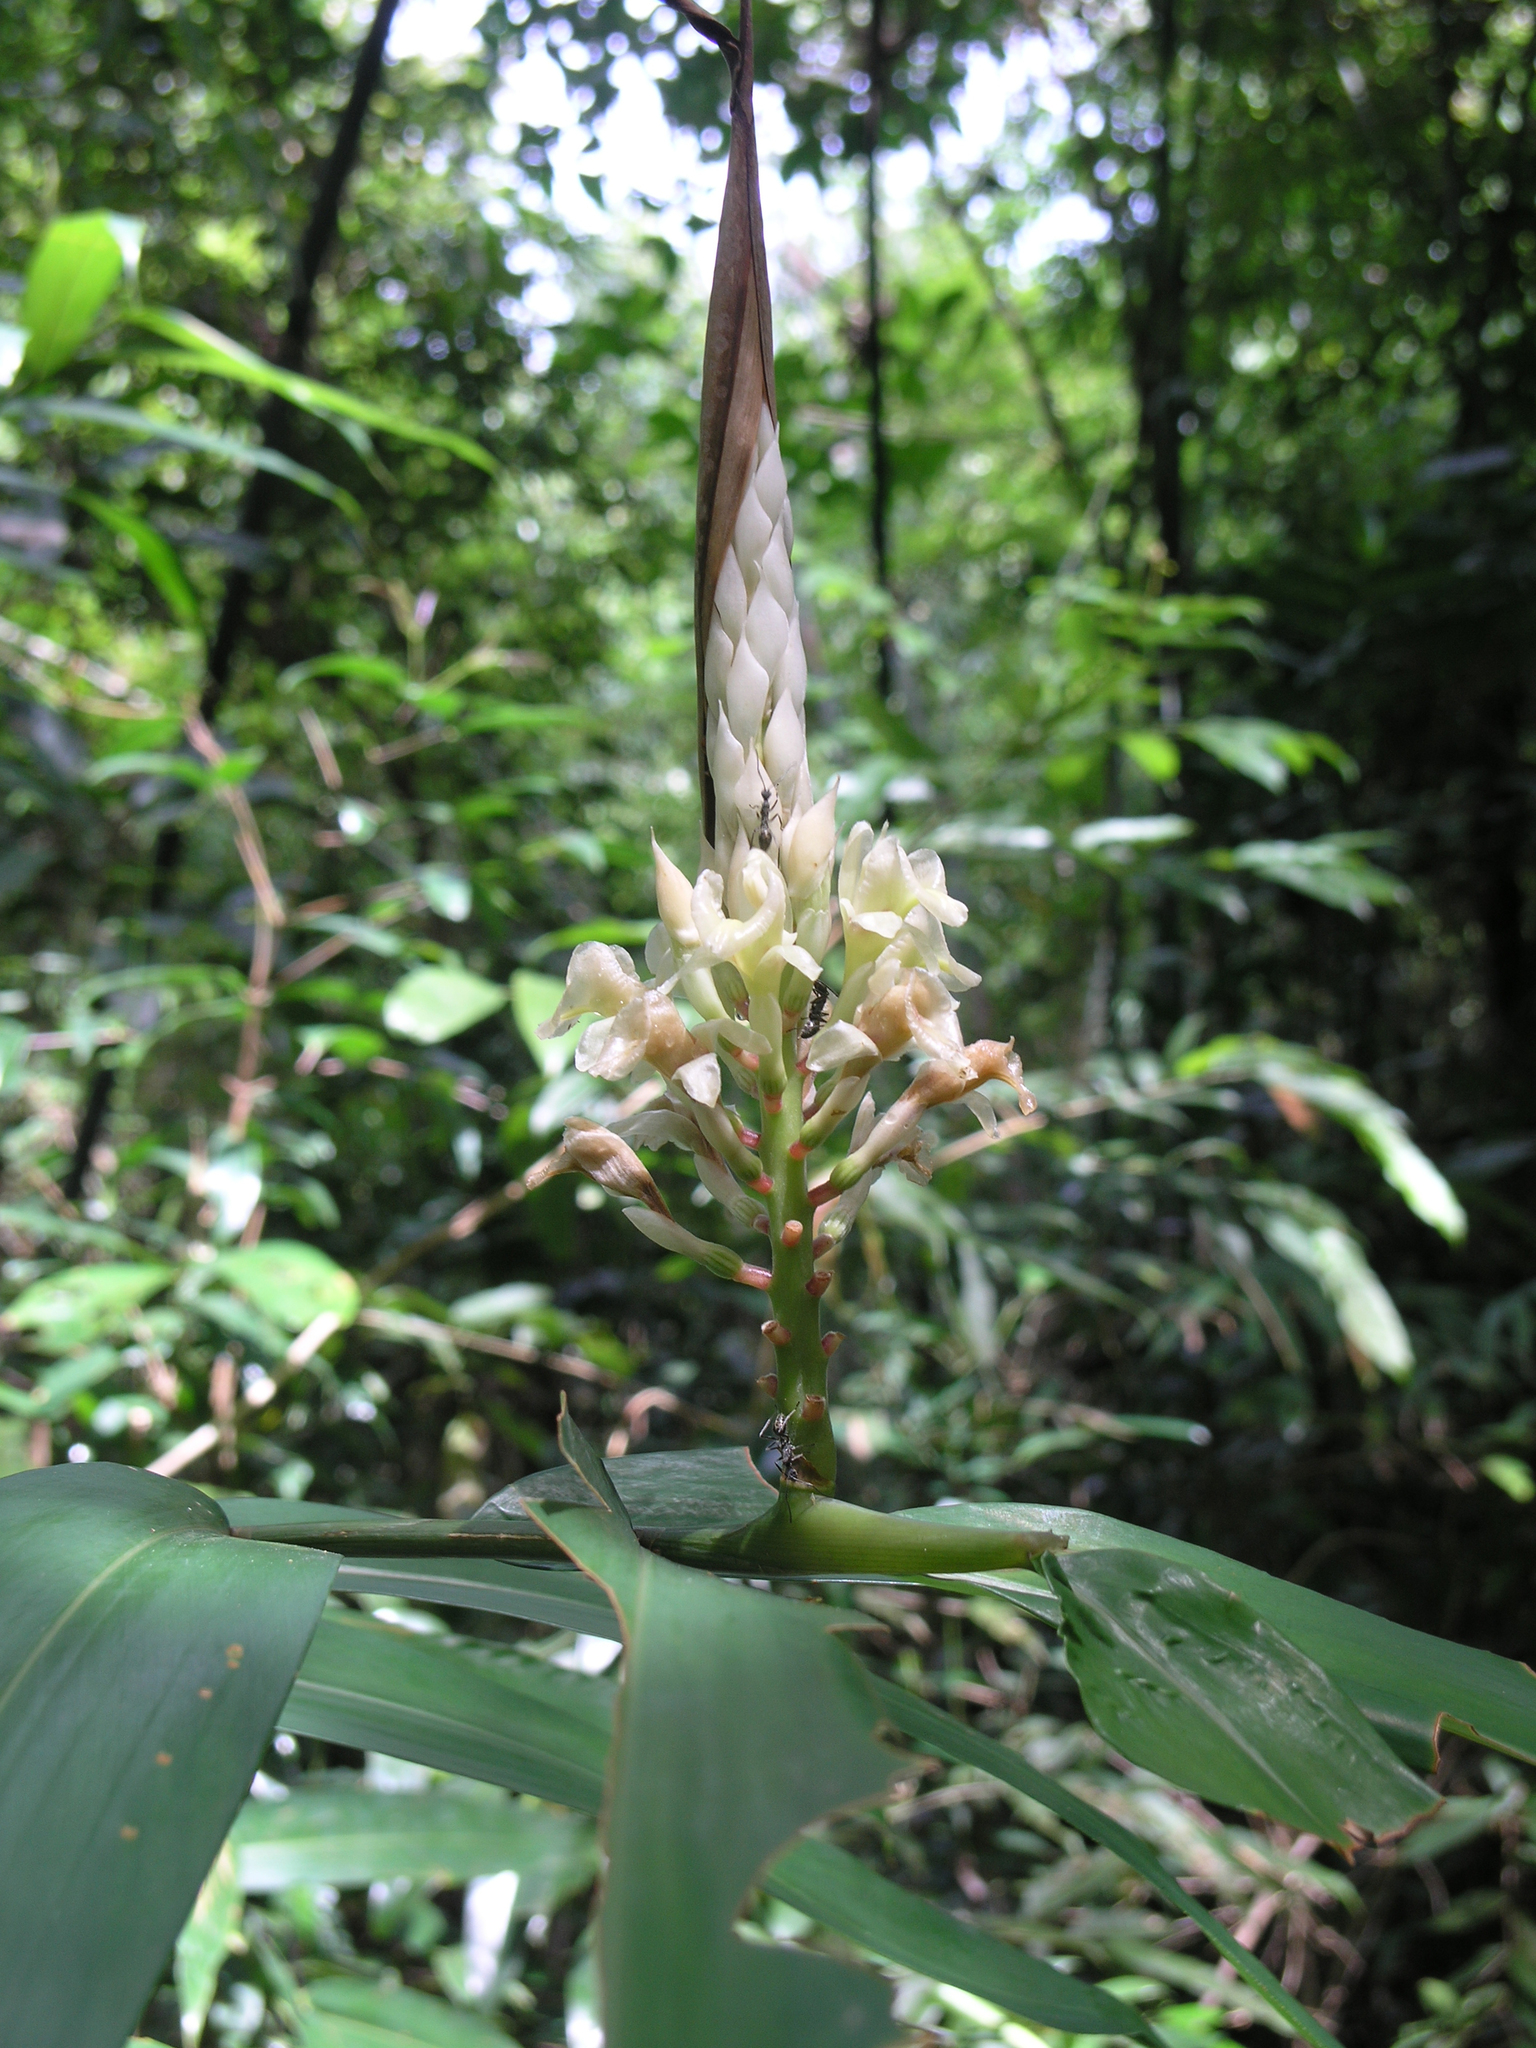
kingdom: Plantae
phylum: Tracheophyta
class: Liliopsida
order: Zingiberales
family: Zingiberaceae
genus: Alpinia
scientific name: Alpinia oxymitra
